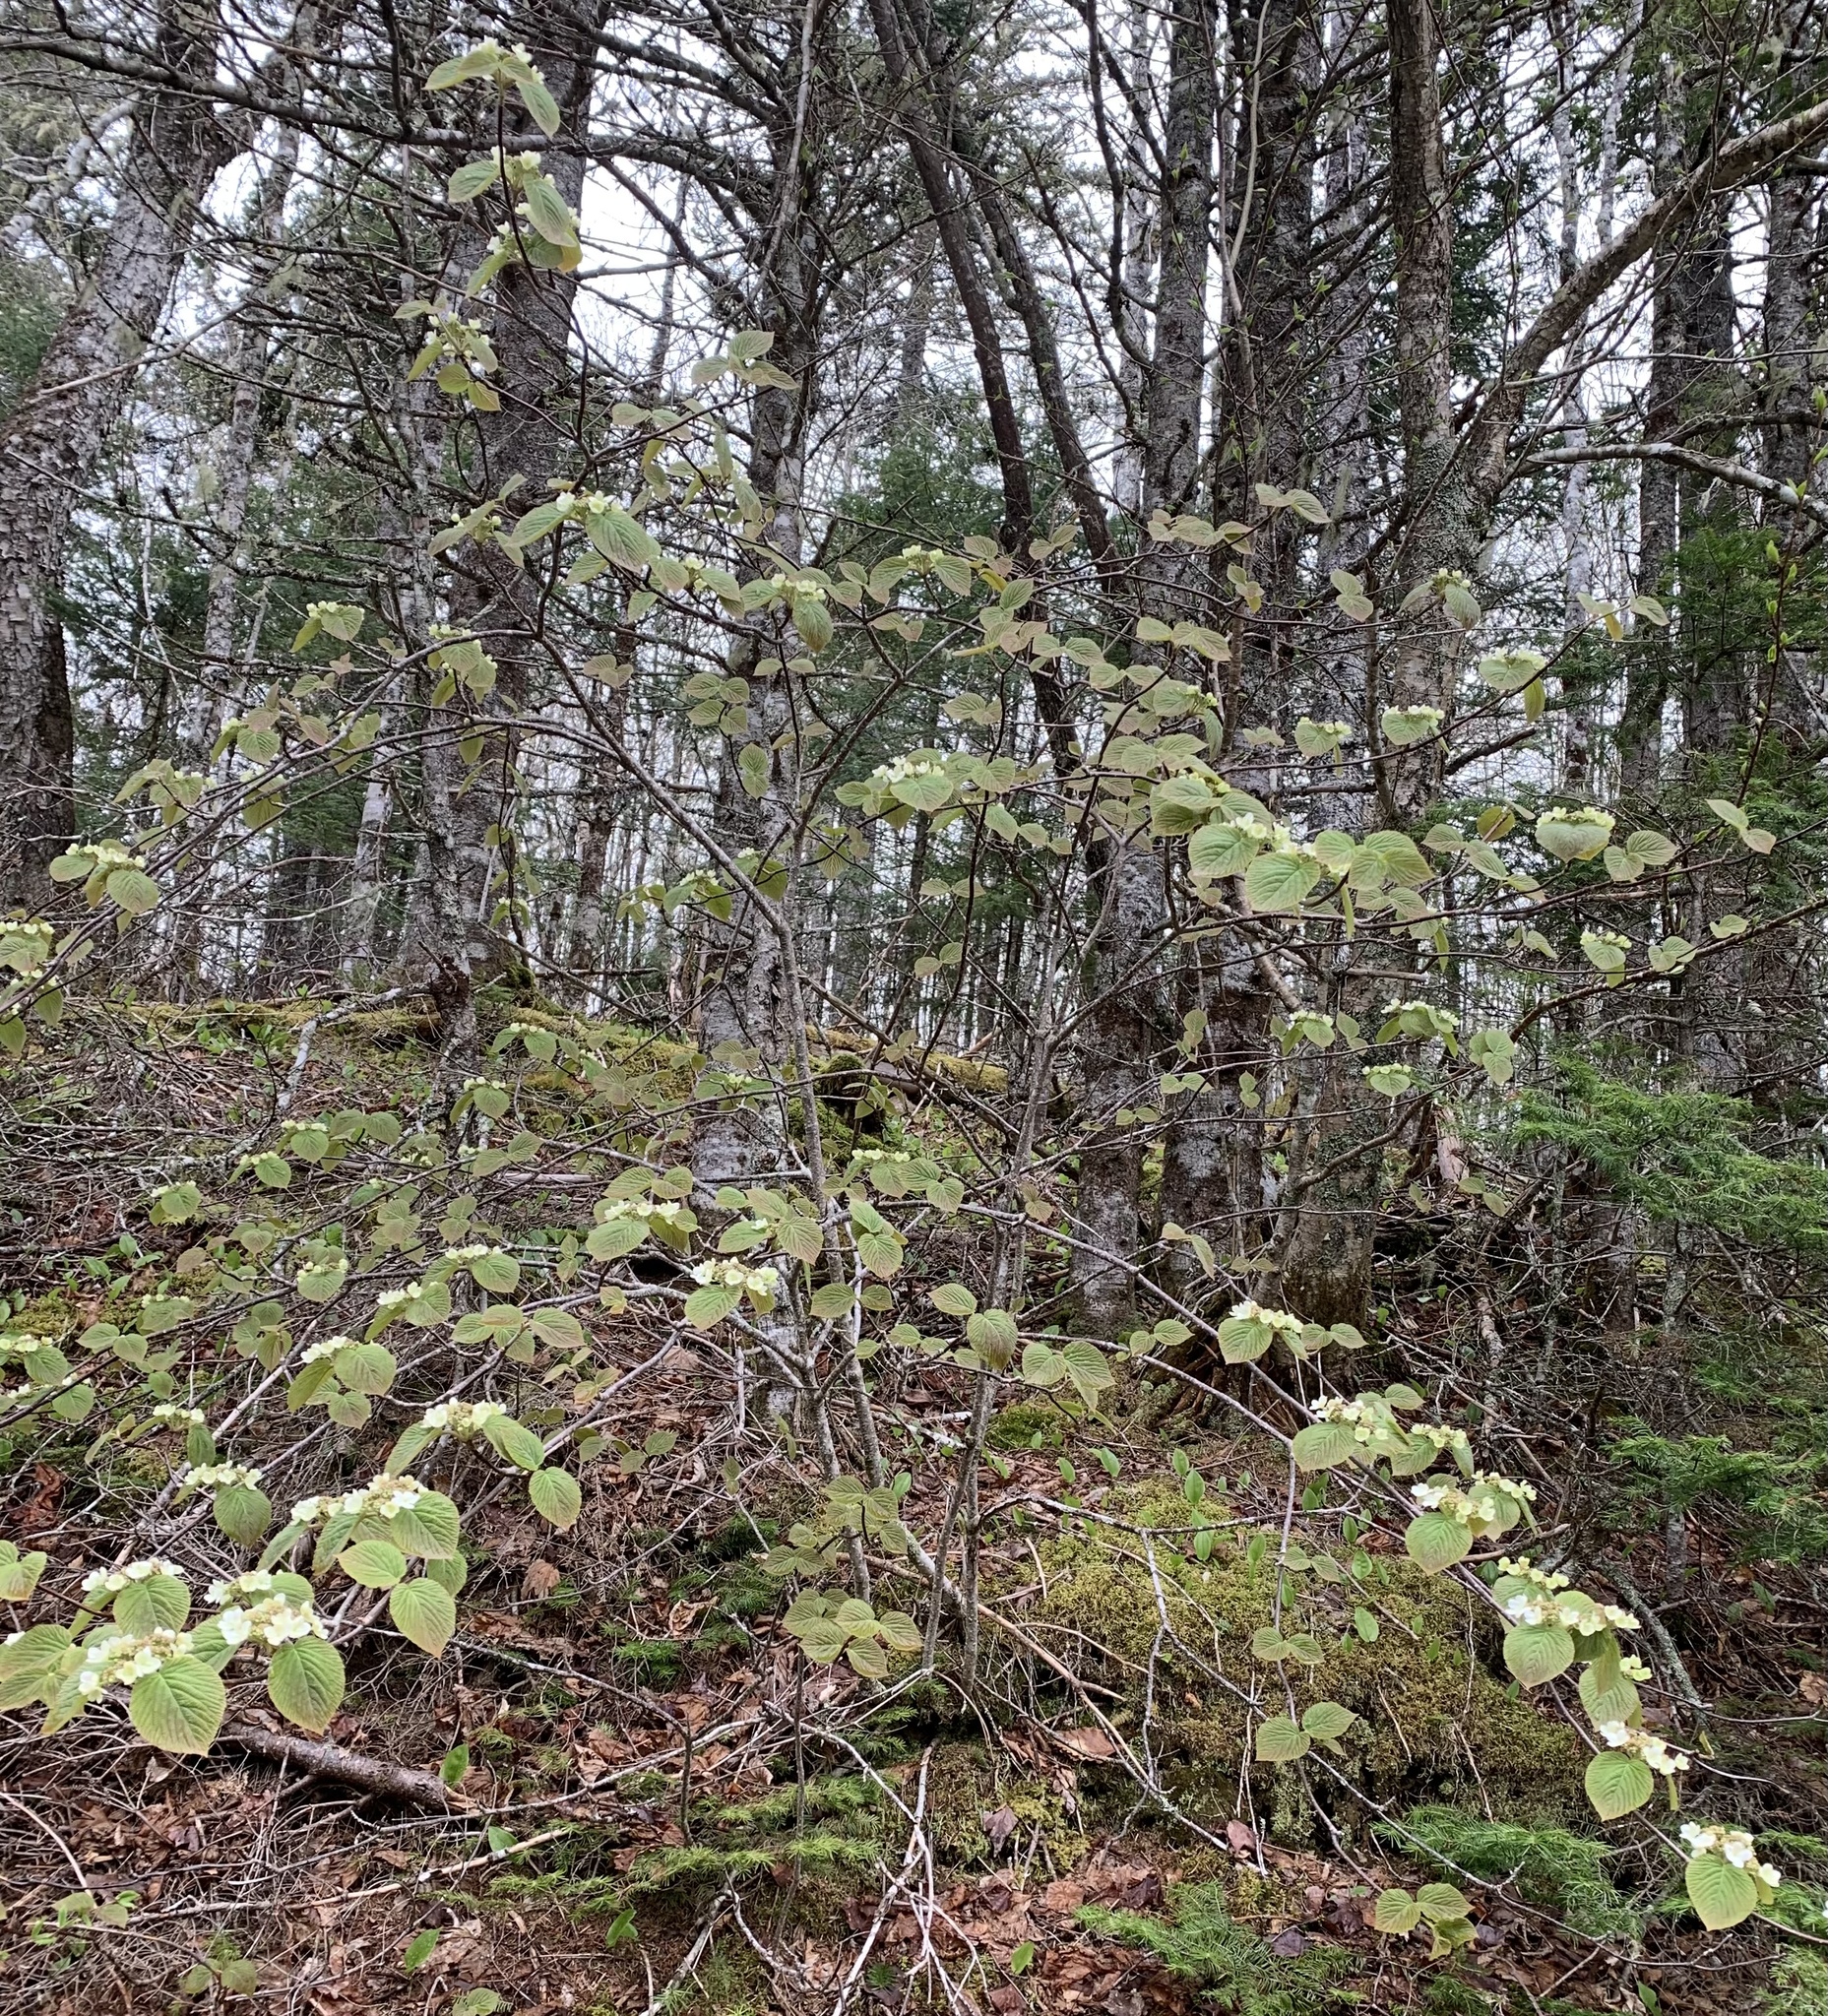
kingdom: Plantae
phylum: Tracheophyta
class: Magnoliopsida
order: Dipsacales
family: Viburnaceae
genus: Viburnum
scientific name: Viburnum lantanoides
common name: Hobblebush
